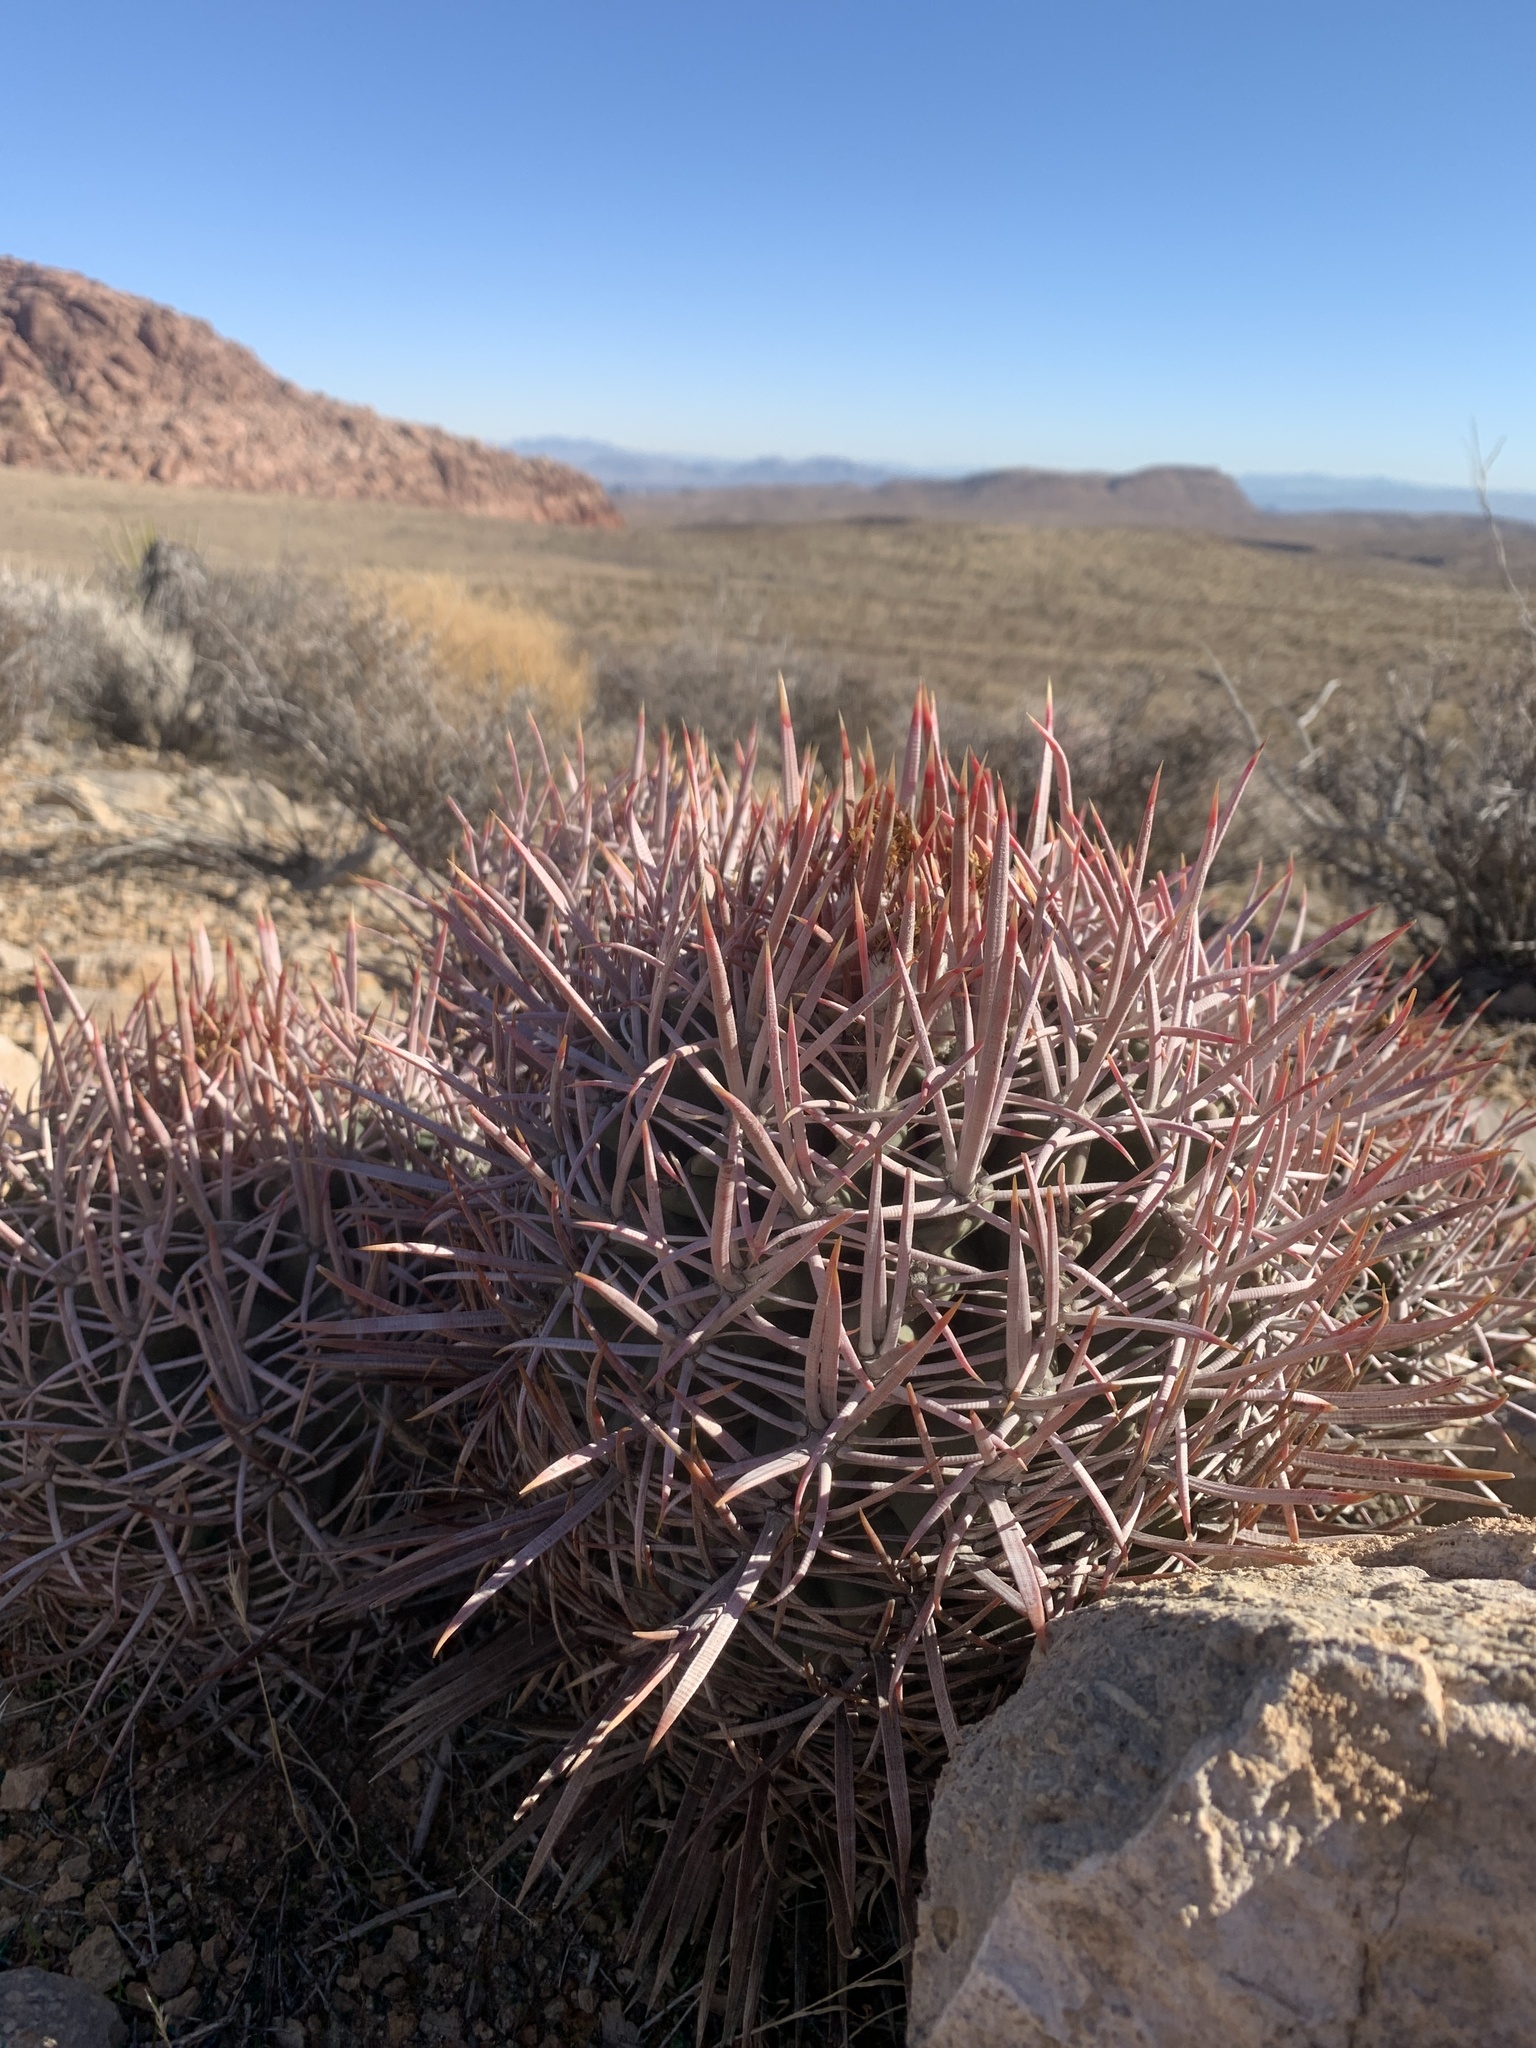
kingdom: Plantae
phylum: Tracheophyta
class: Magnoliopsida
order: Caryophyllales
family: Cactaceae
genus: Echinocactus
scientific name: Echinocactus polycephalus
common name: Cottontop cactus
